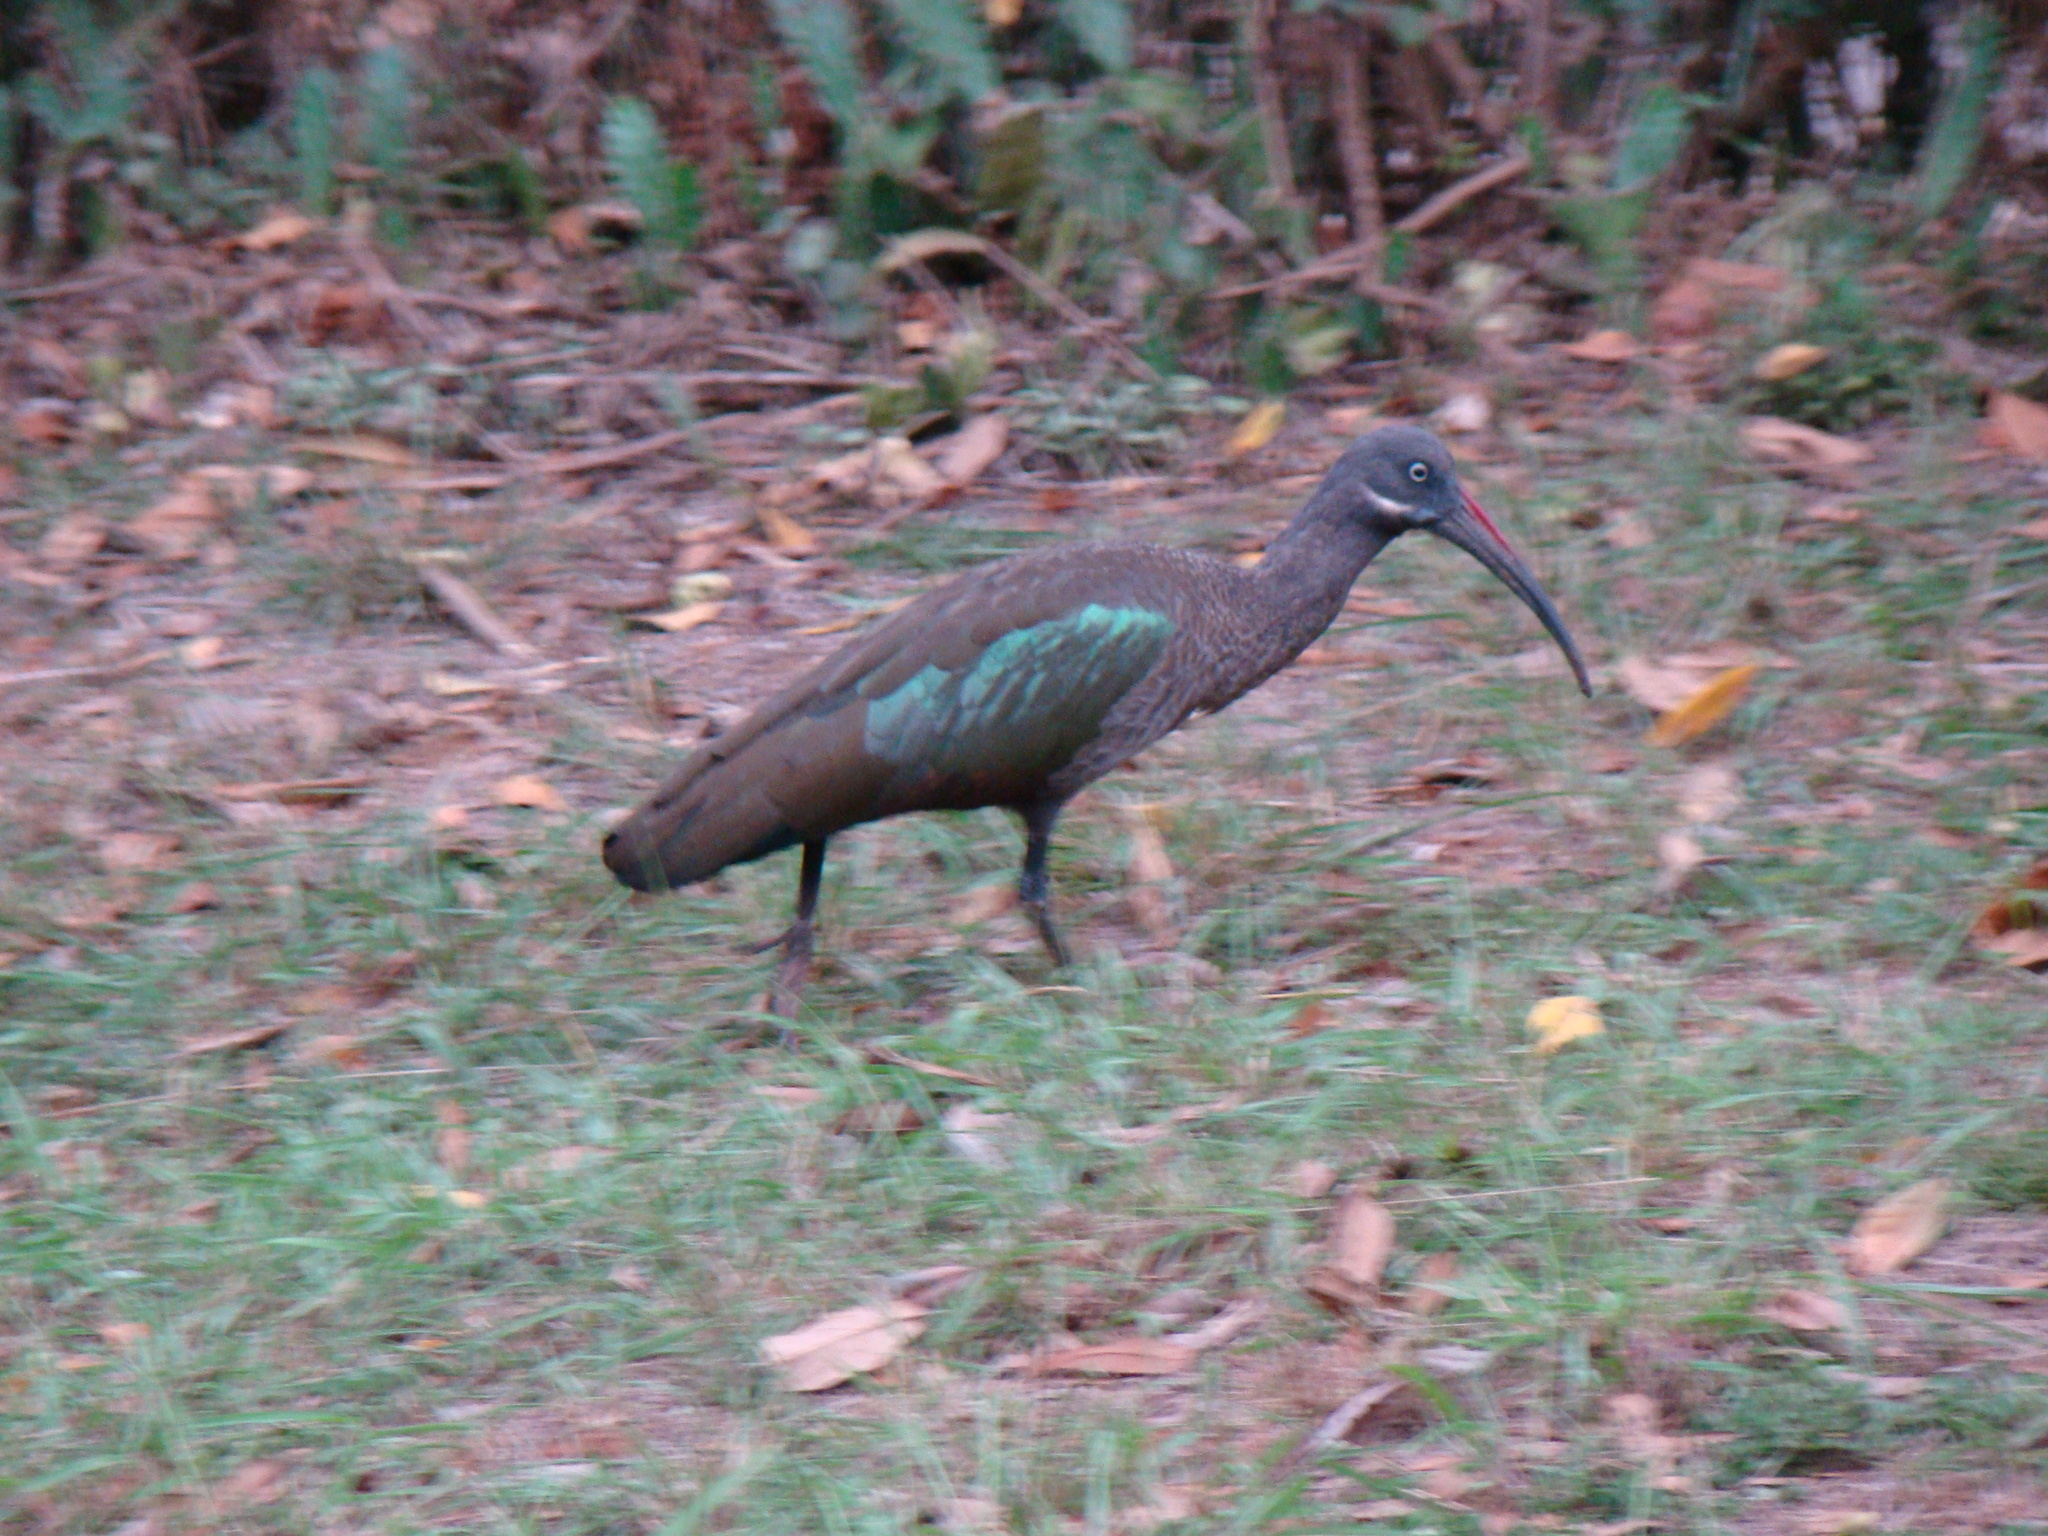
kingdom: Animalia
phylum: Chordata
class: Aves
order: Pelecaniformes
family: Threskiornithidae
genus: Bostrychia
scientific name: Bostrychia hagedash
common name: Hadada ibis
